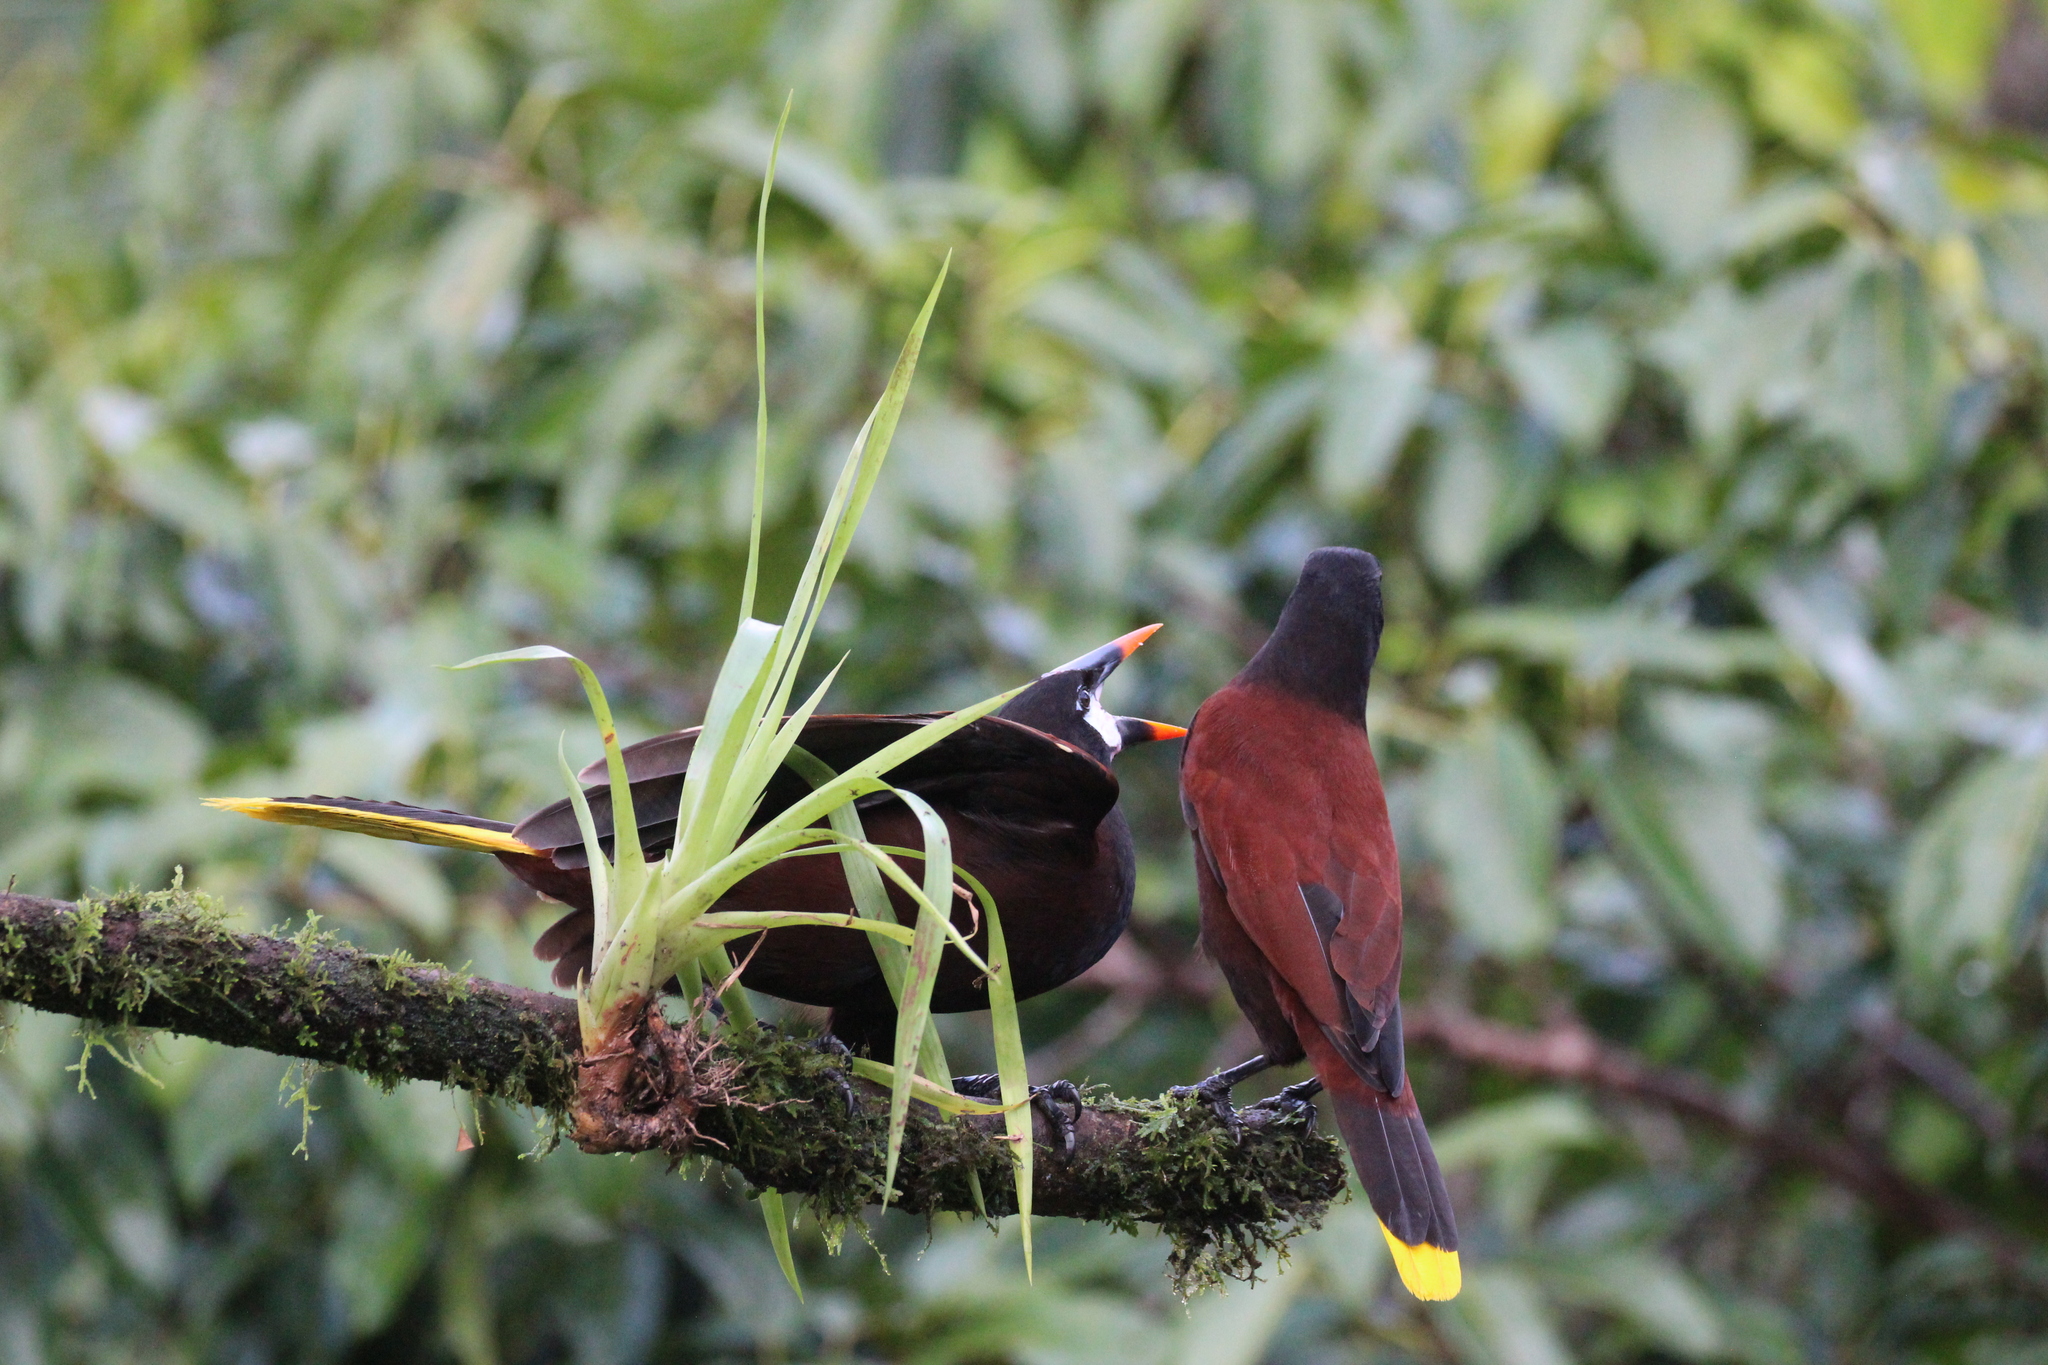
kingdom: Animalia
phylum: Chordata
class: Aves
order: Passeriformes
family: Icteridae
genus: Psarocolius
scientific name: Psarocolius montezuma
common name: Montezuma oropendola
